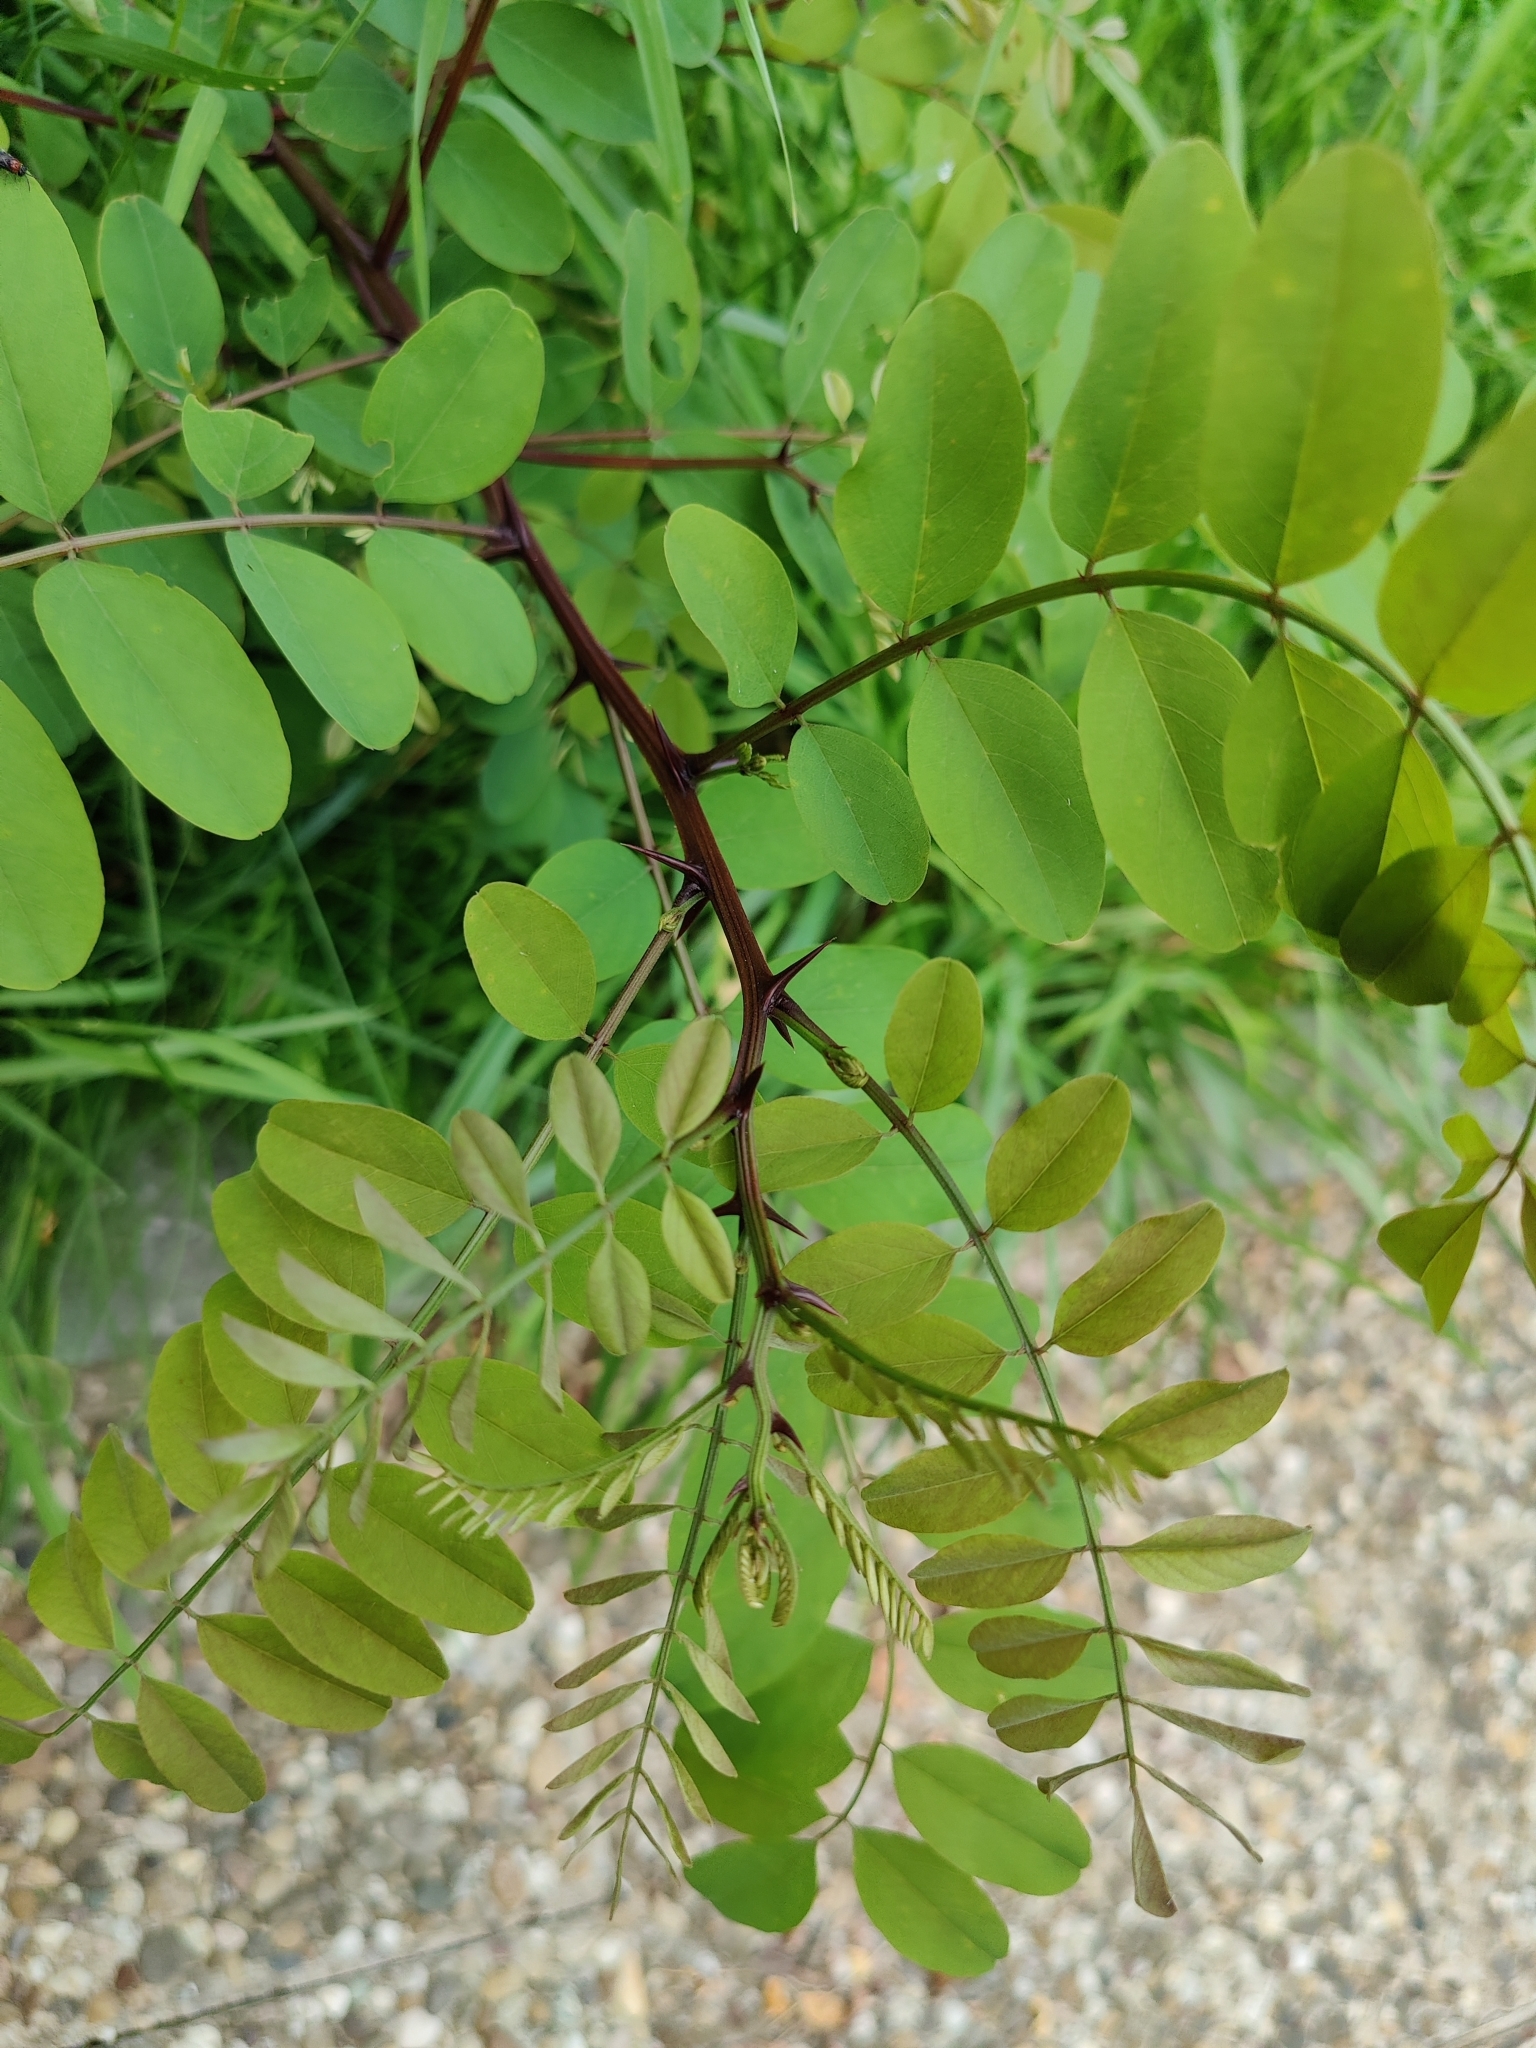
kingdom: Plantae
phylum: Tracheophyta
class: Magnoliopsida
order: Fabales
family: Fabaceae
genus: Robinia
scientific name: Robinia pseudoacacia
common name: Black locust
